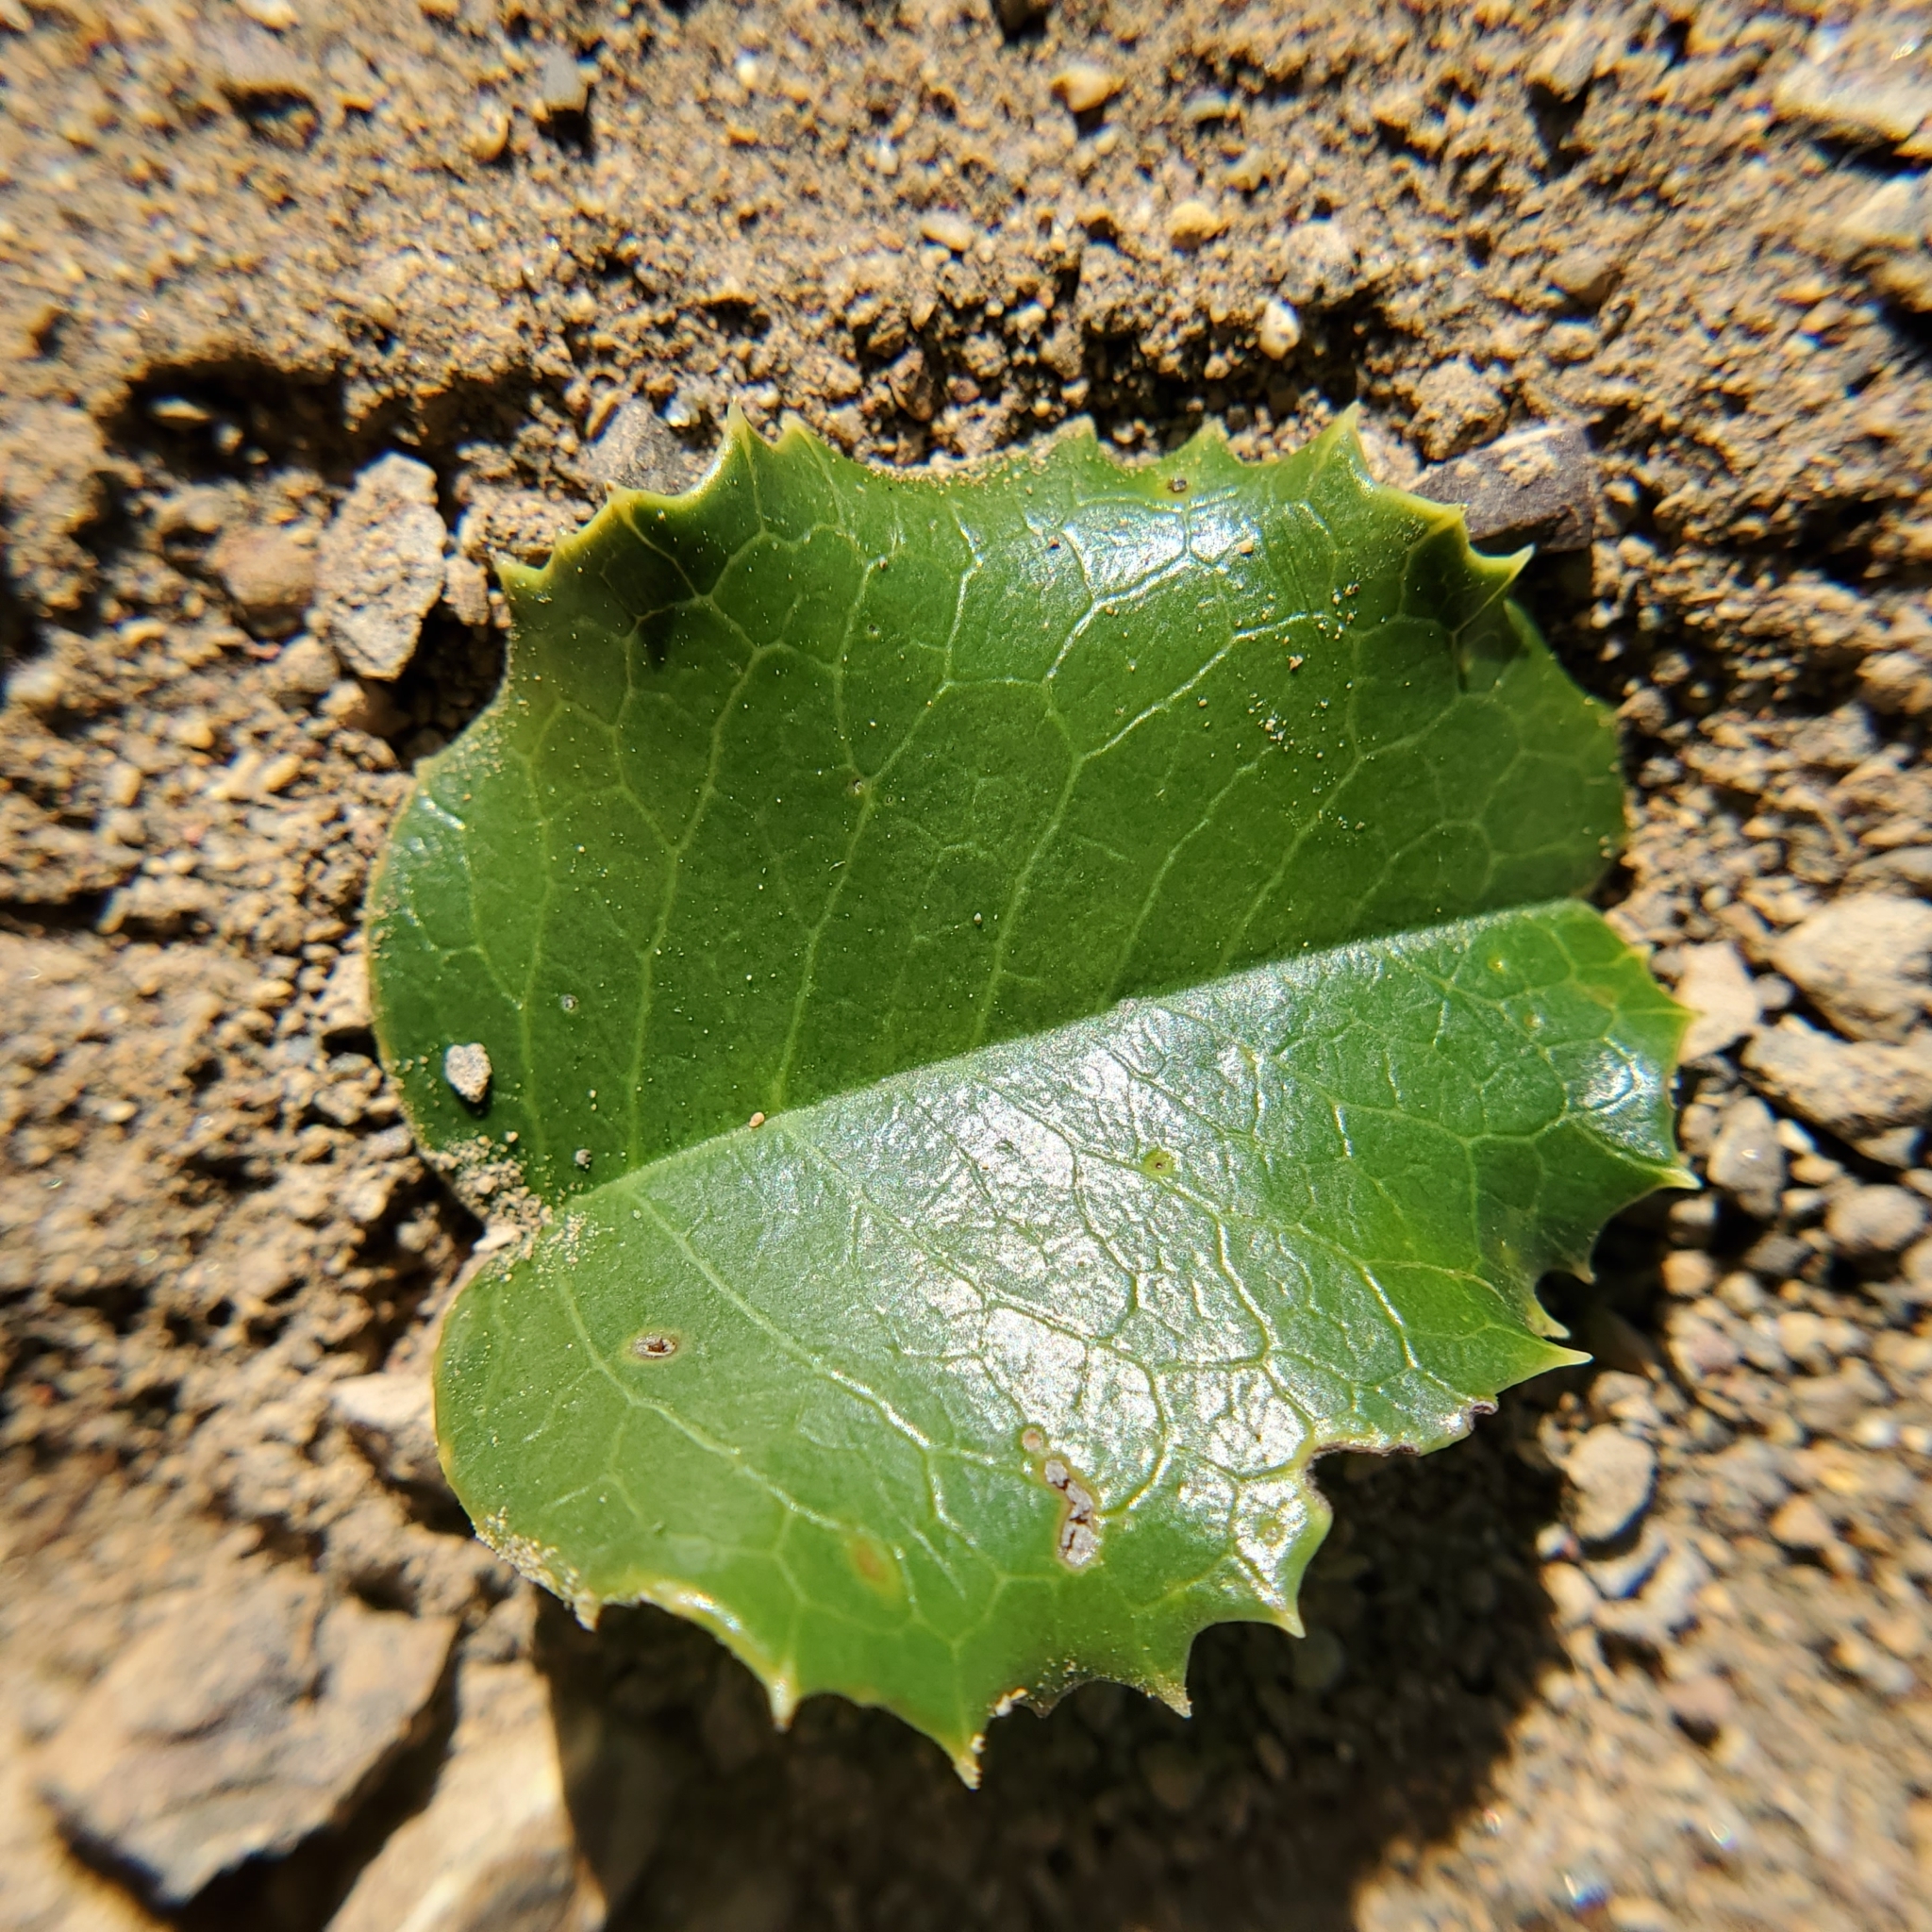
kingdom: Plantae
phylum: Tracheophyta
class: Magnoliopsida
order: Rosales
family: Rosaceae
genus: Prunus
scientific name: Prunus ilicifolia
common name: Hollyleaf cherry
